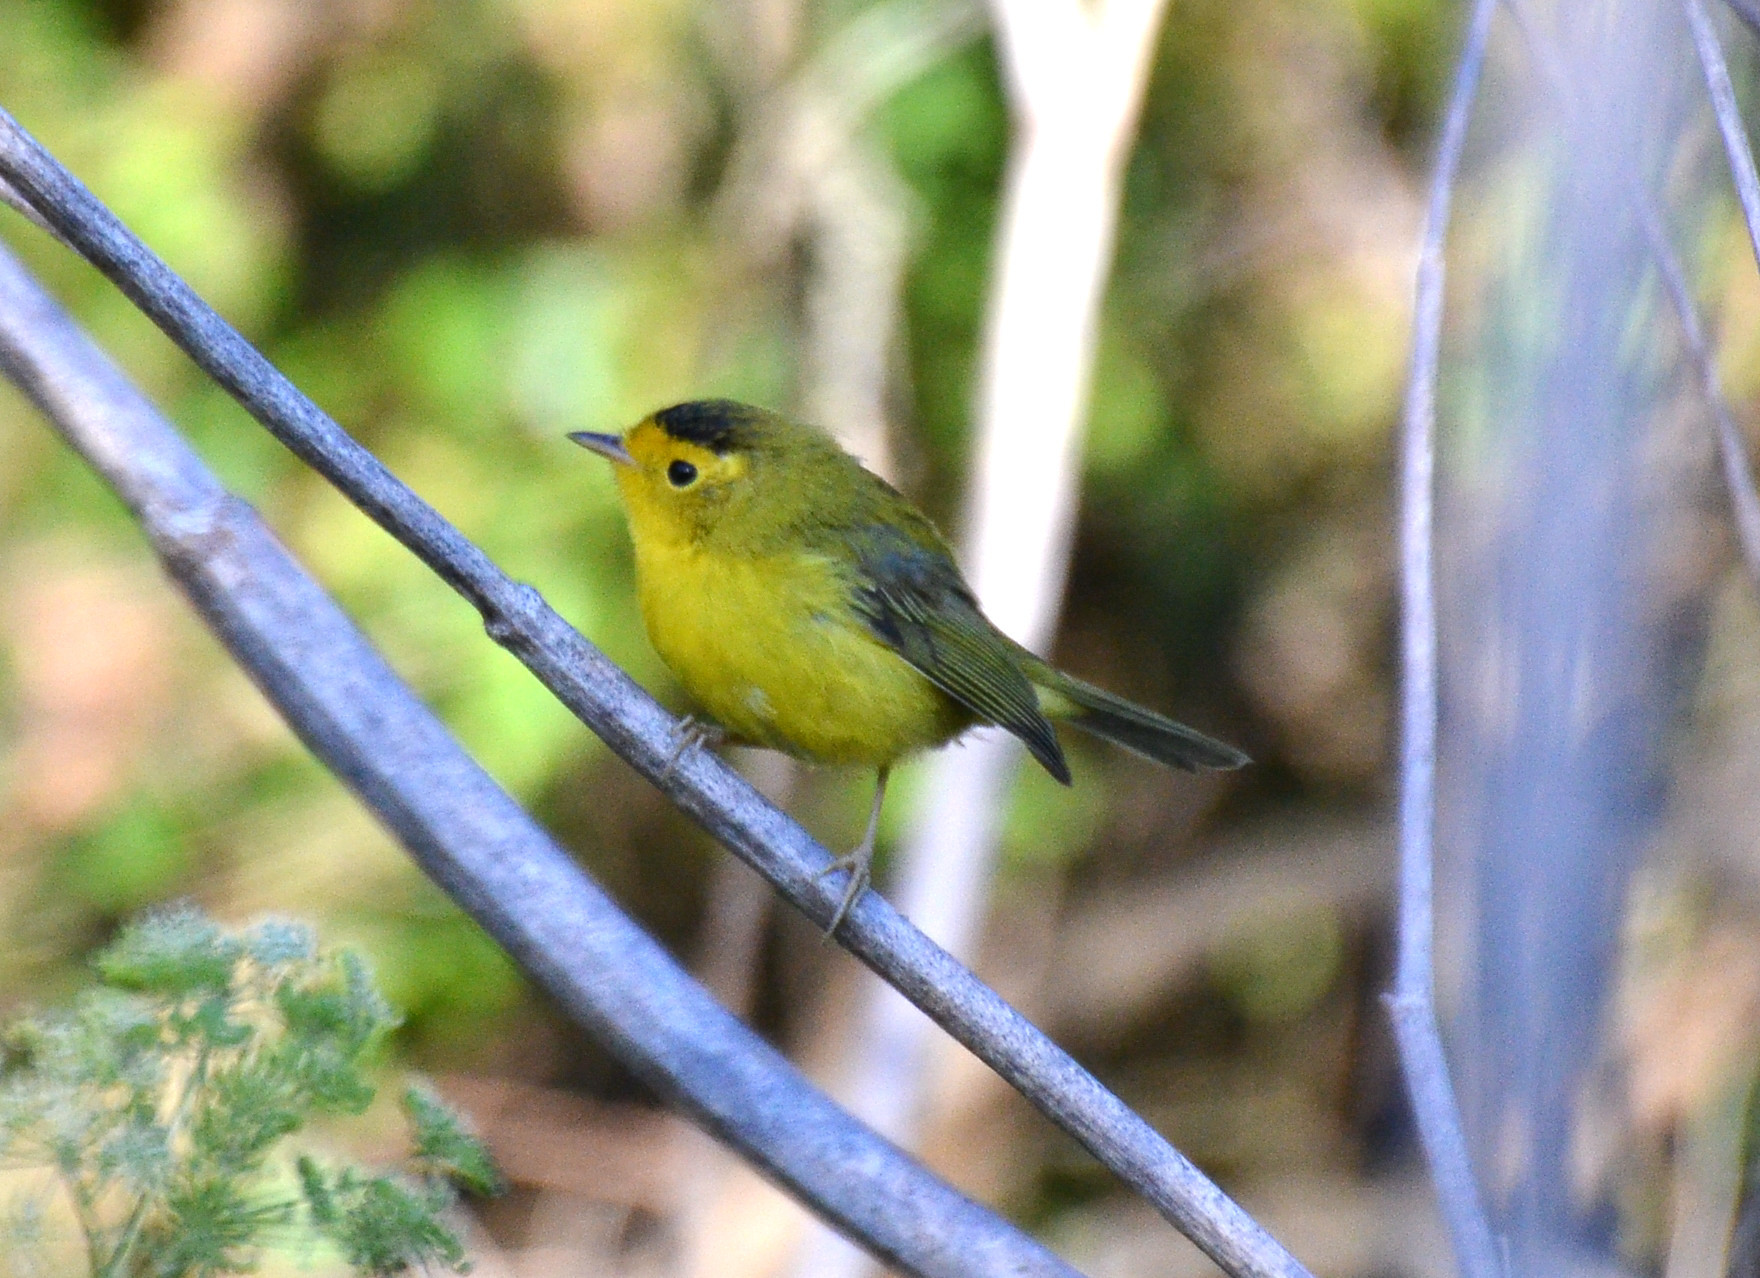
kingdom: Animalia
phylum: Chordata
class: Aves
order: Passeriformes
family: Parulidae
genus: Cardellina
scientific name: Cardellina pusilla
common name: Wilson's warbler
